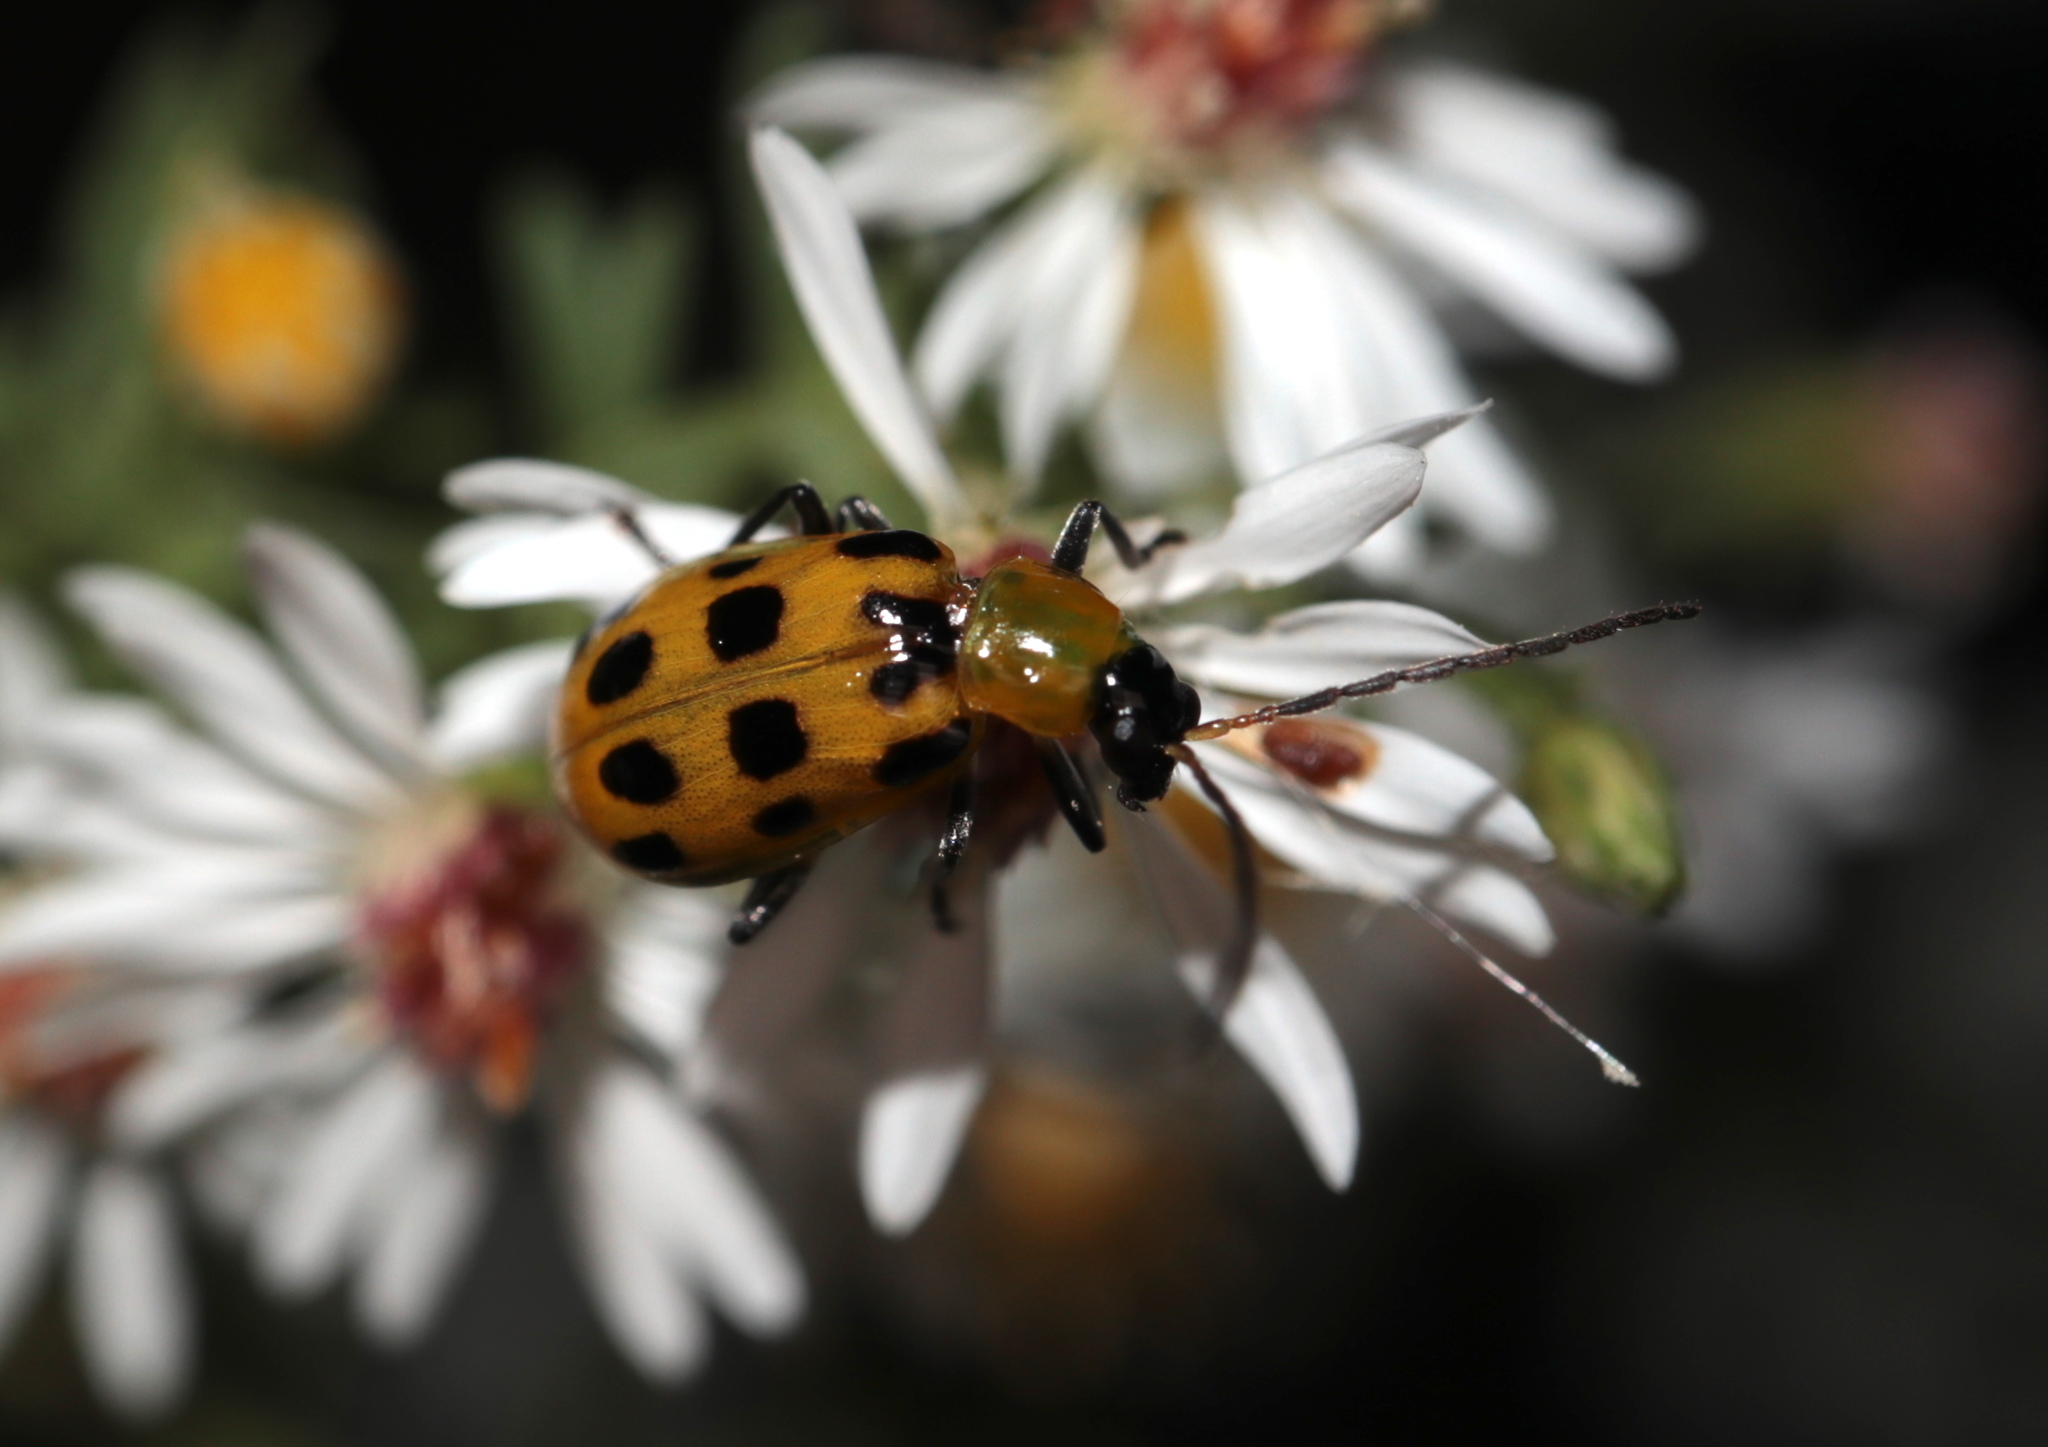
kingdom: Animalia
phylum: Arthropoda
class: Insecta
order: Coleoptera
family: Chrysomelidae
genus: Diabrotica
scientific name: Diabrotica undecimpunctata
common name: Spotted cucumber beetle
